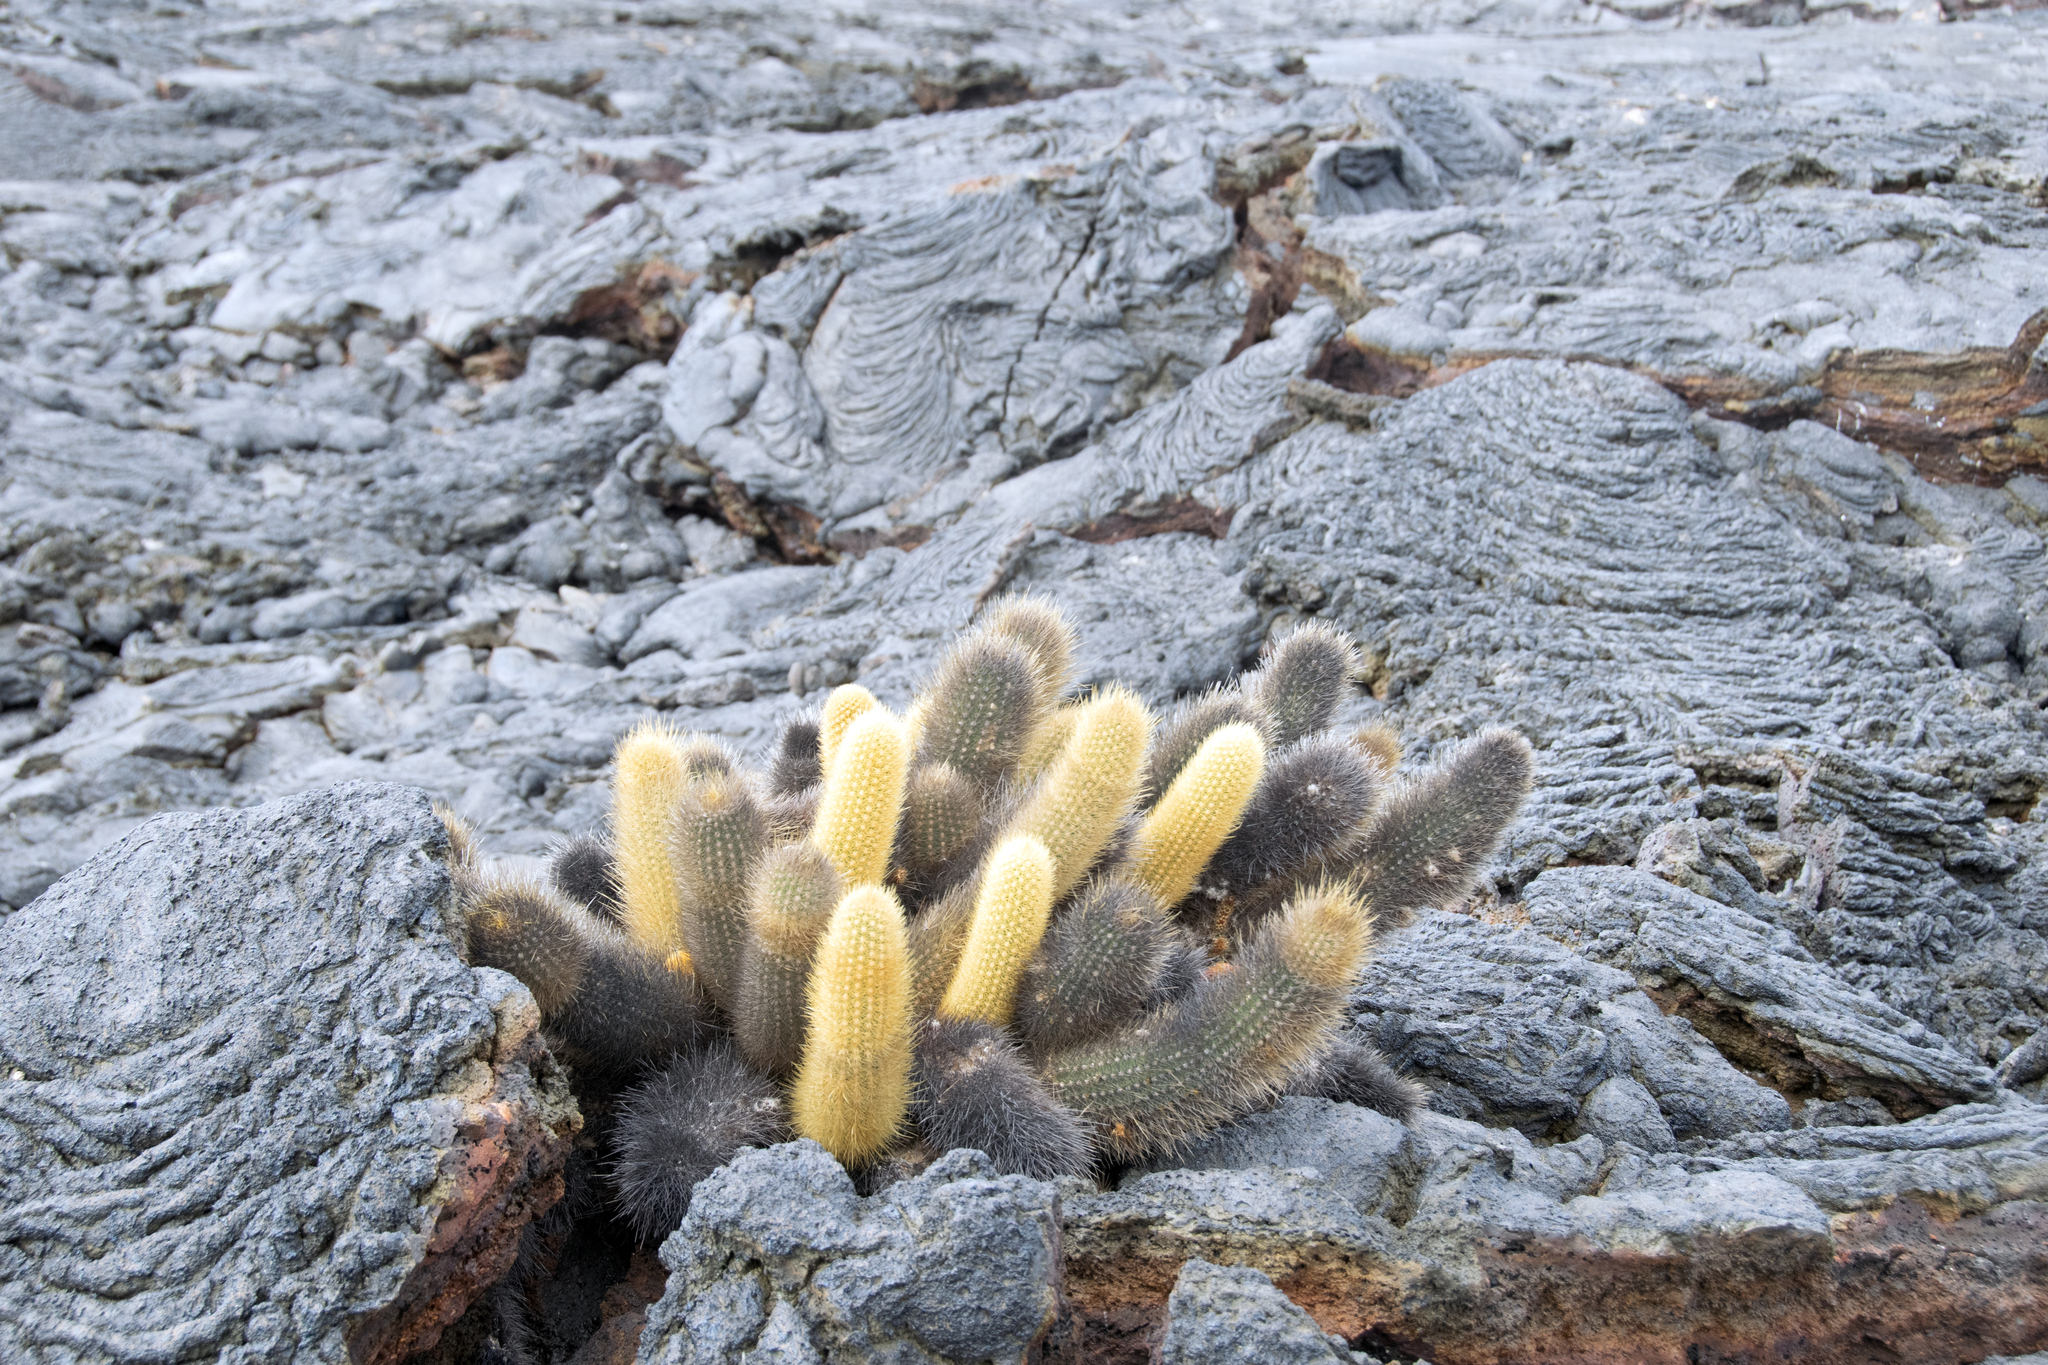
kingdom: Plantae
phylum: Tracheophyta
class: Magnoliopsida
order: Caryophyllales
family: Cactaceae
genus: Brachycereus
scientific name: Brachycereus nesioticus
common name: Lava cactus
